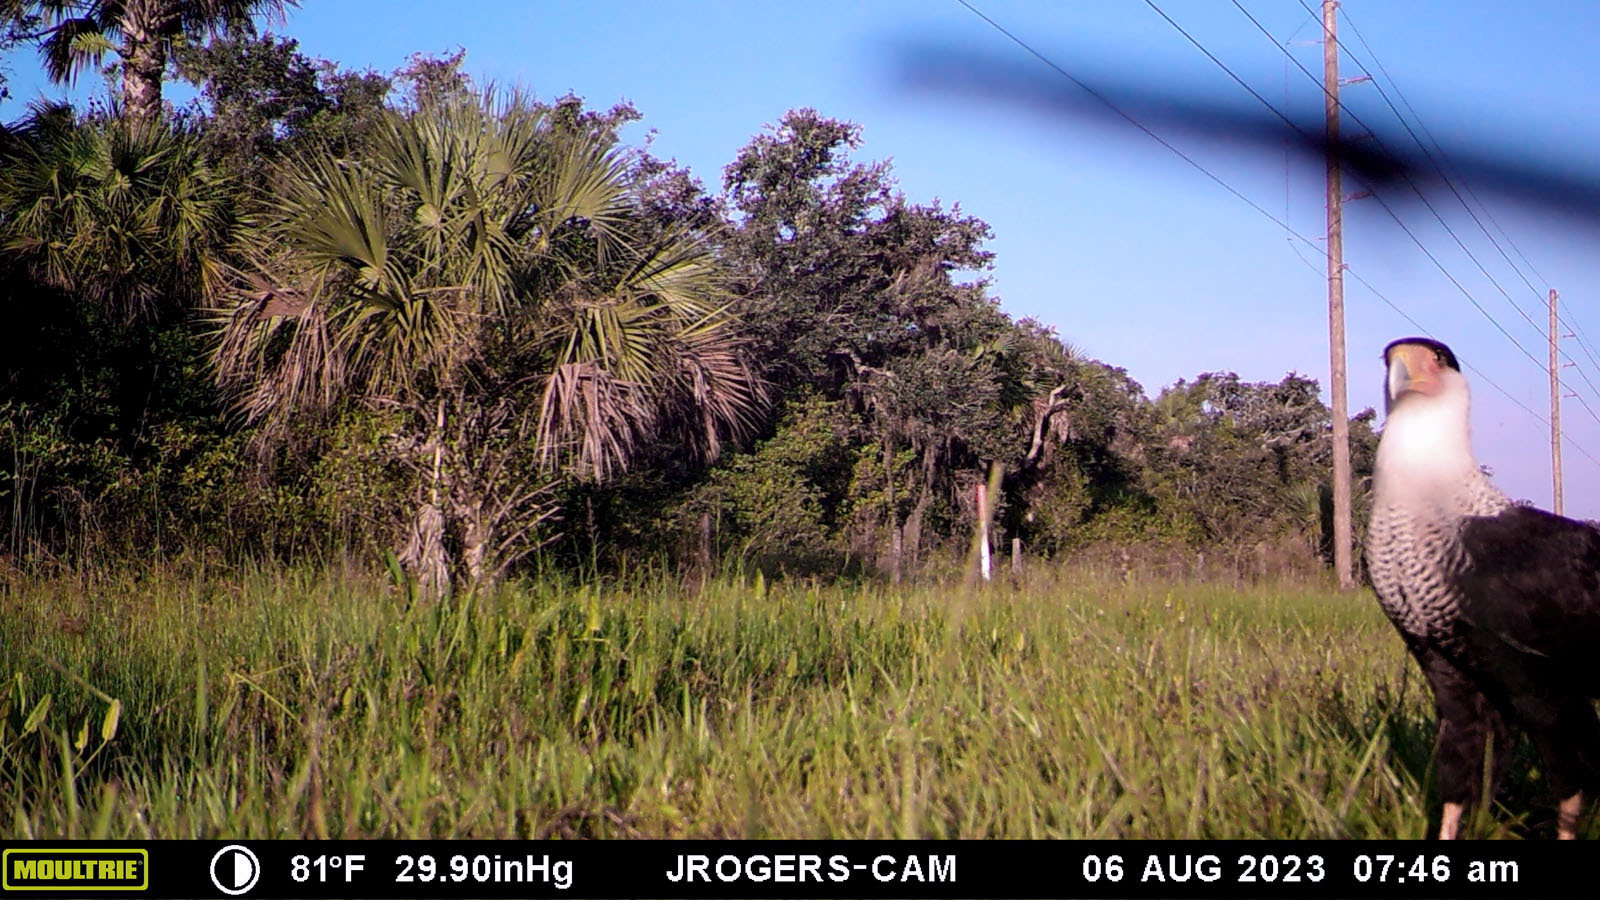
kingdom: Animalia
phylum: Chordata
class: Aves
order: Falconiformes
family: Falconidae
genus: Caracara
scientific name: Caracara plancus
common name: Southern caracara
